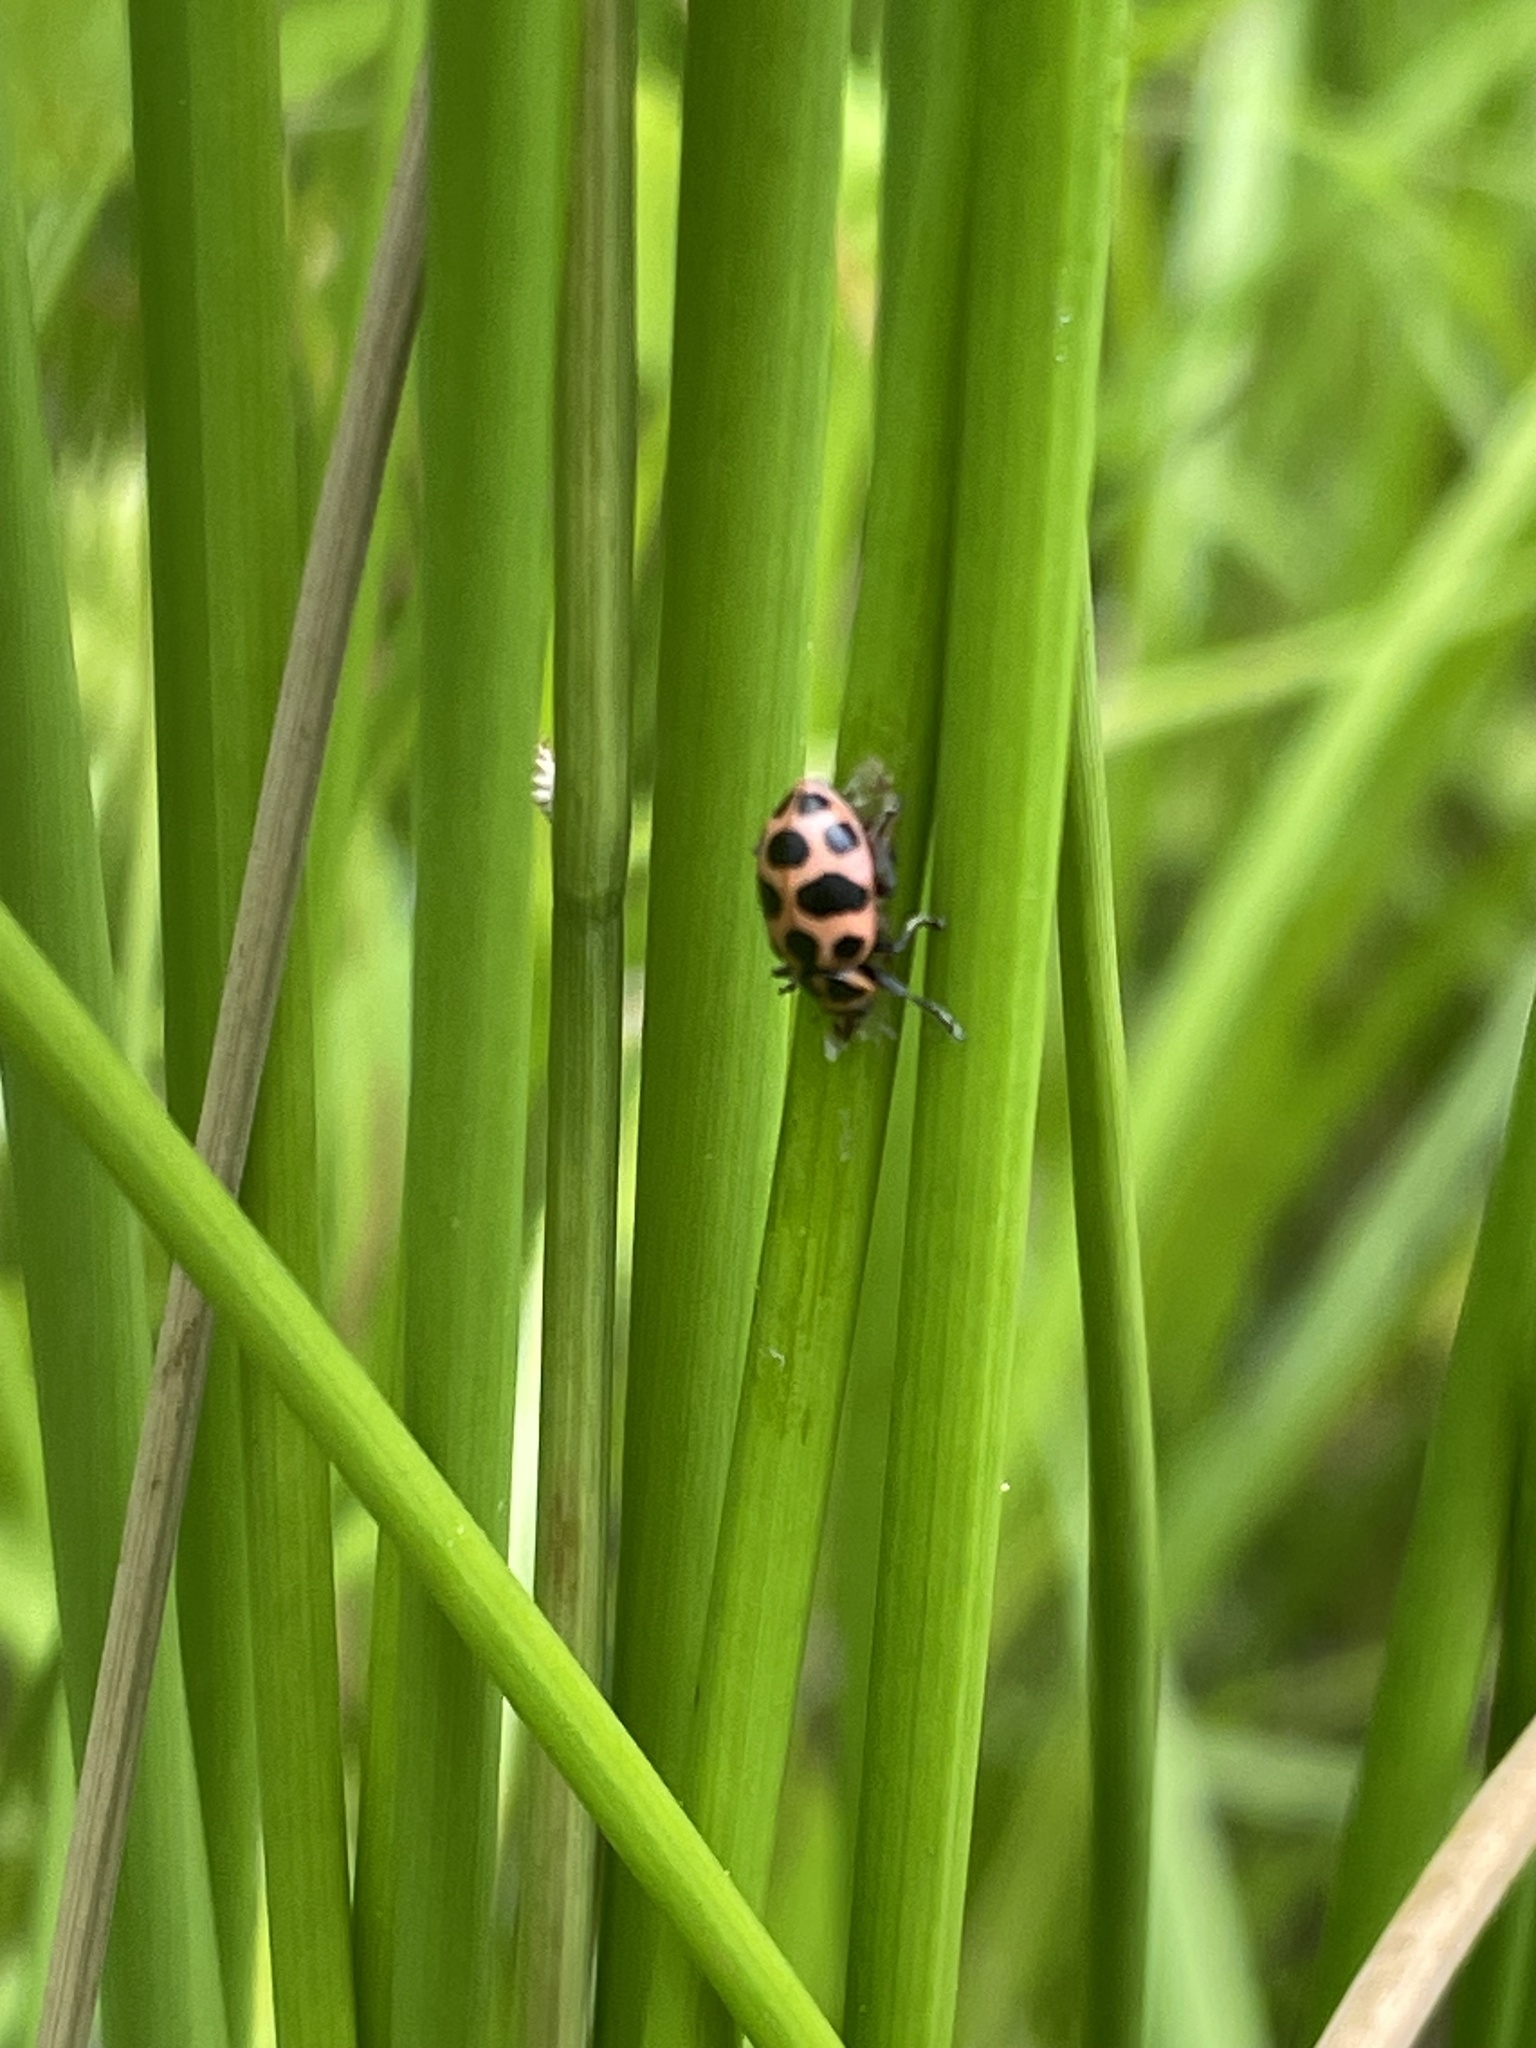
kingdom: Animalia
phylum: Arthropoda
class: Insecta
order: Coleoptera
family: Coccinellidae
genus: Coleomegilla
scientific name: Coleomegilla maculata
